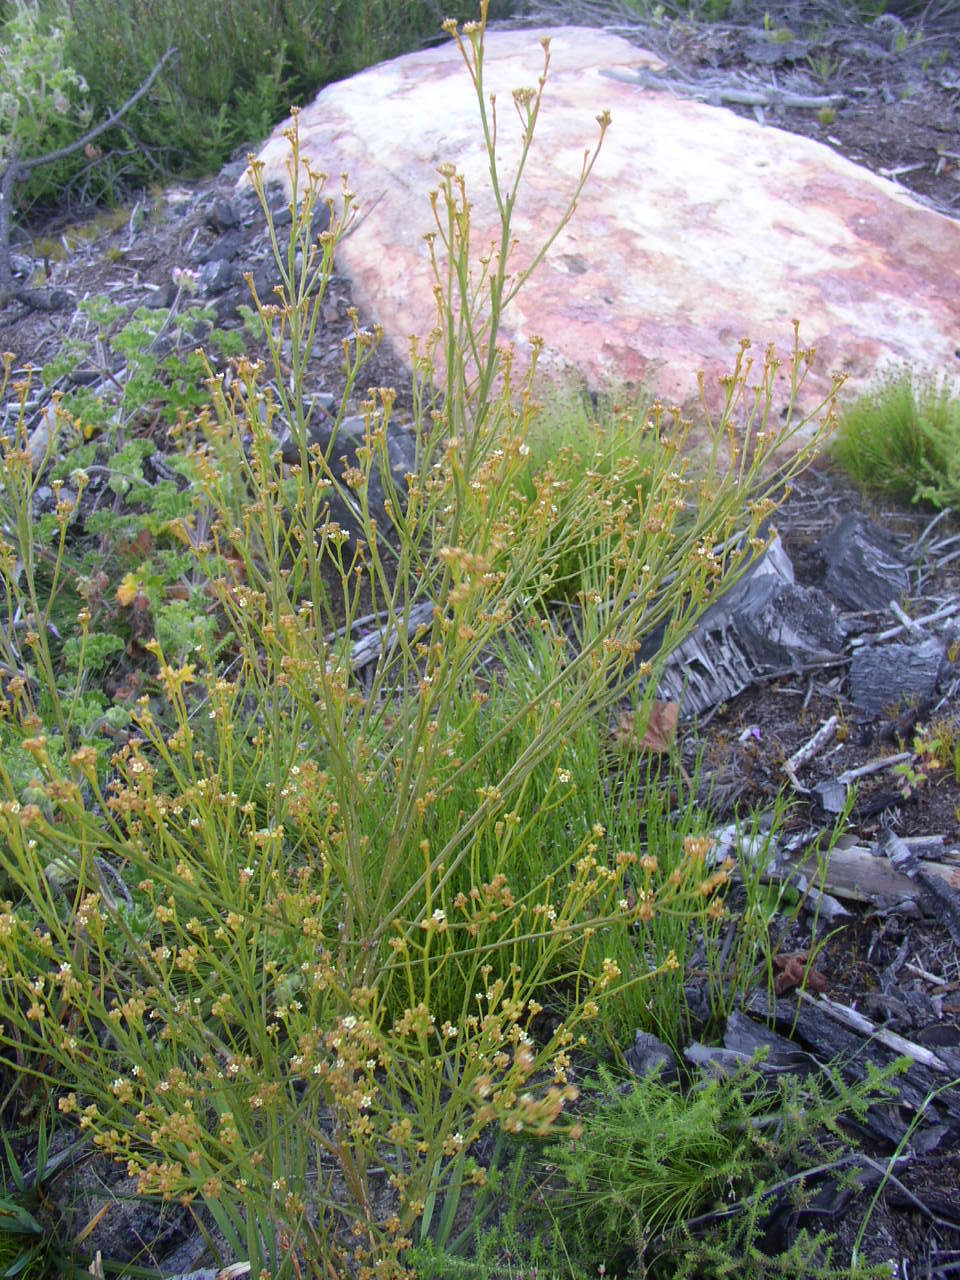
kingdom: Plantae
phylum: Tracheophyta
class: Magnoliopsida
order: Santalales
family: Thesiaceae
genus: Thesium
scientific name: Thesium strictum
